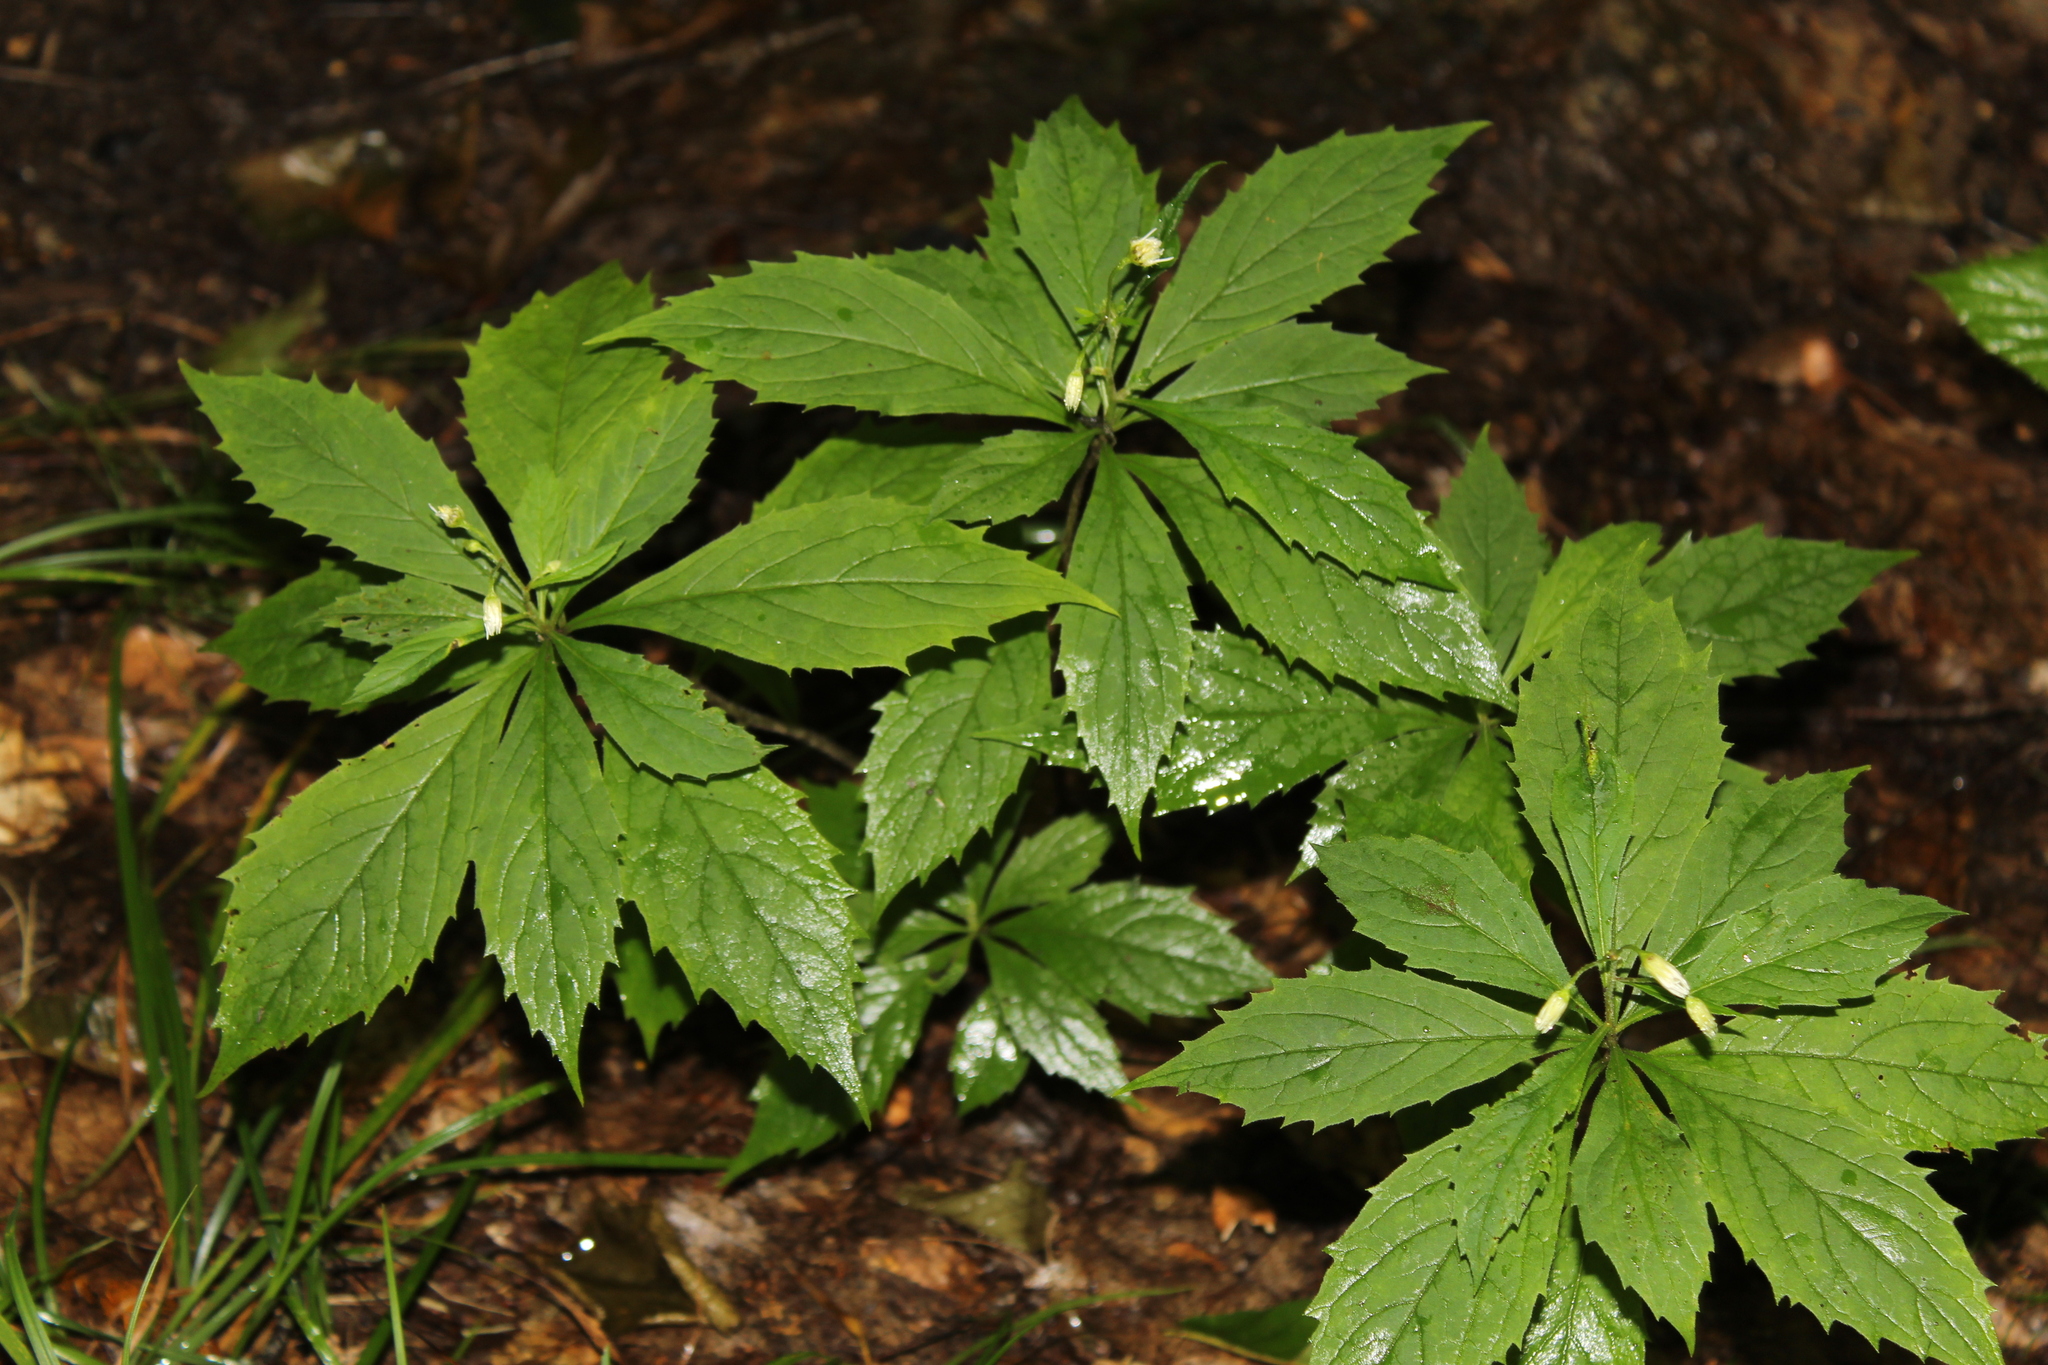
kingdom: Plantae
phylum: Tracheophyta
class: Magnoliopsida
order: Asterales
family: Asteraceae
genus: Oclemena
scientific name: Oclemena acuminata
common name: Mountain aster
